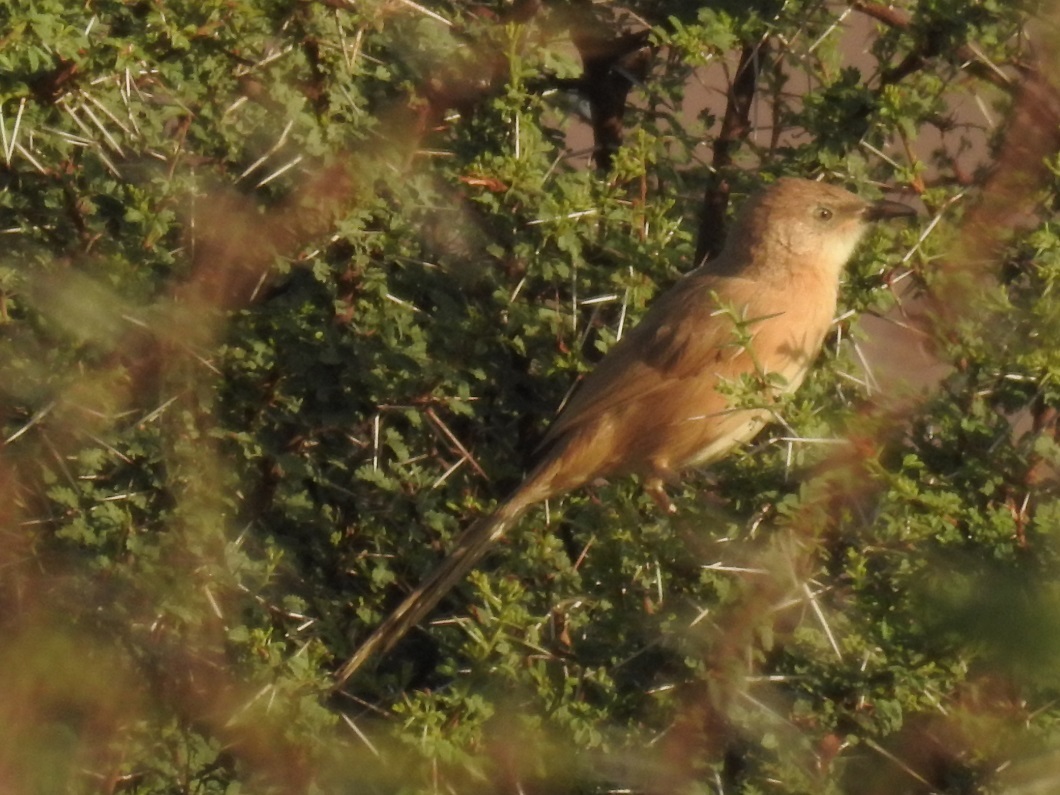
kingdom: Animalia
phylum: Chordata
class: Aves
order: Passeriformes
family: Leiothrichidae
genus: Turdoides
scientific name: Turdoides fulva
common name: Fulvous babbler
